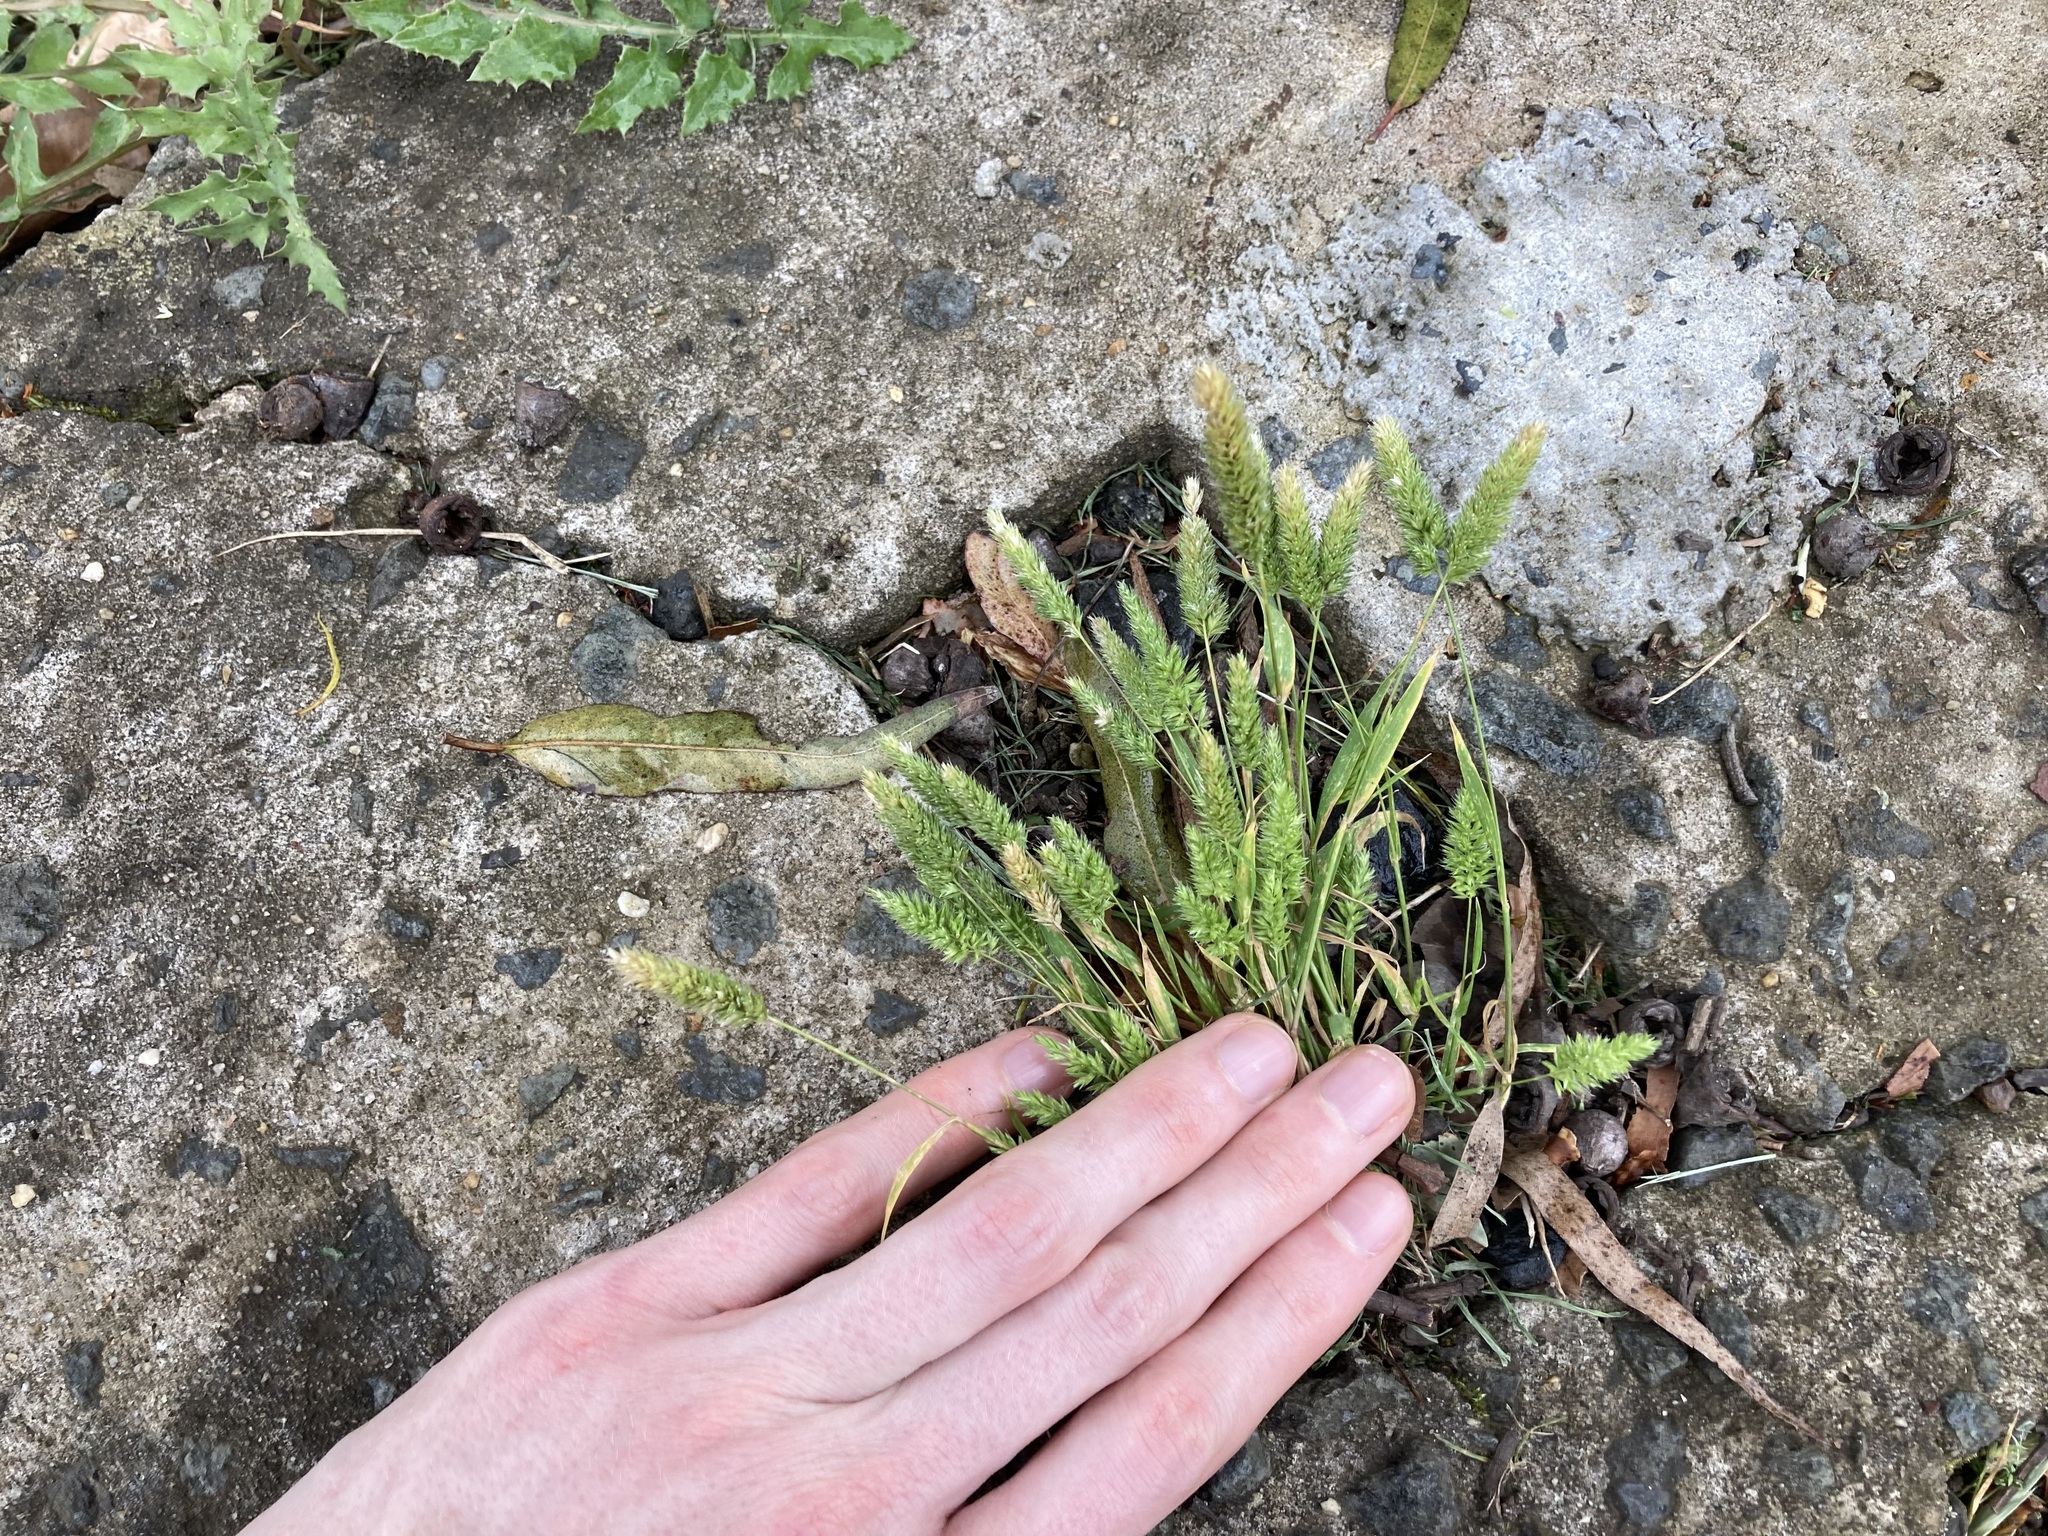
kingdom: Plantae
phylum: Tracheophyta
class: Liliopsida
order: Poales
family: Poaceae
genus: Rostraria
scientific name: Rostraria cristata
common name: Mediterranean hair-grass
